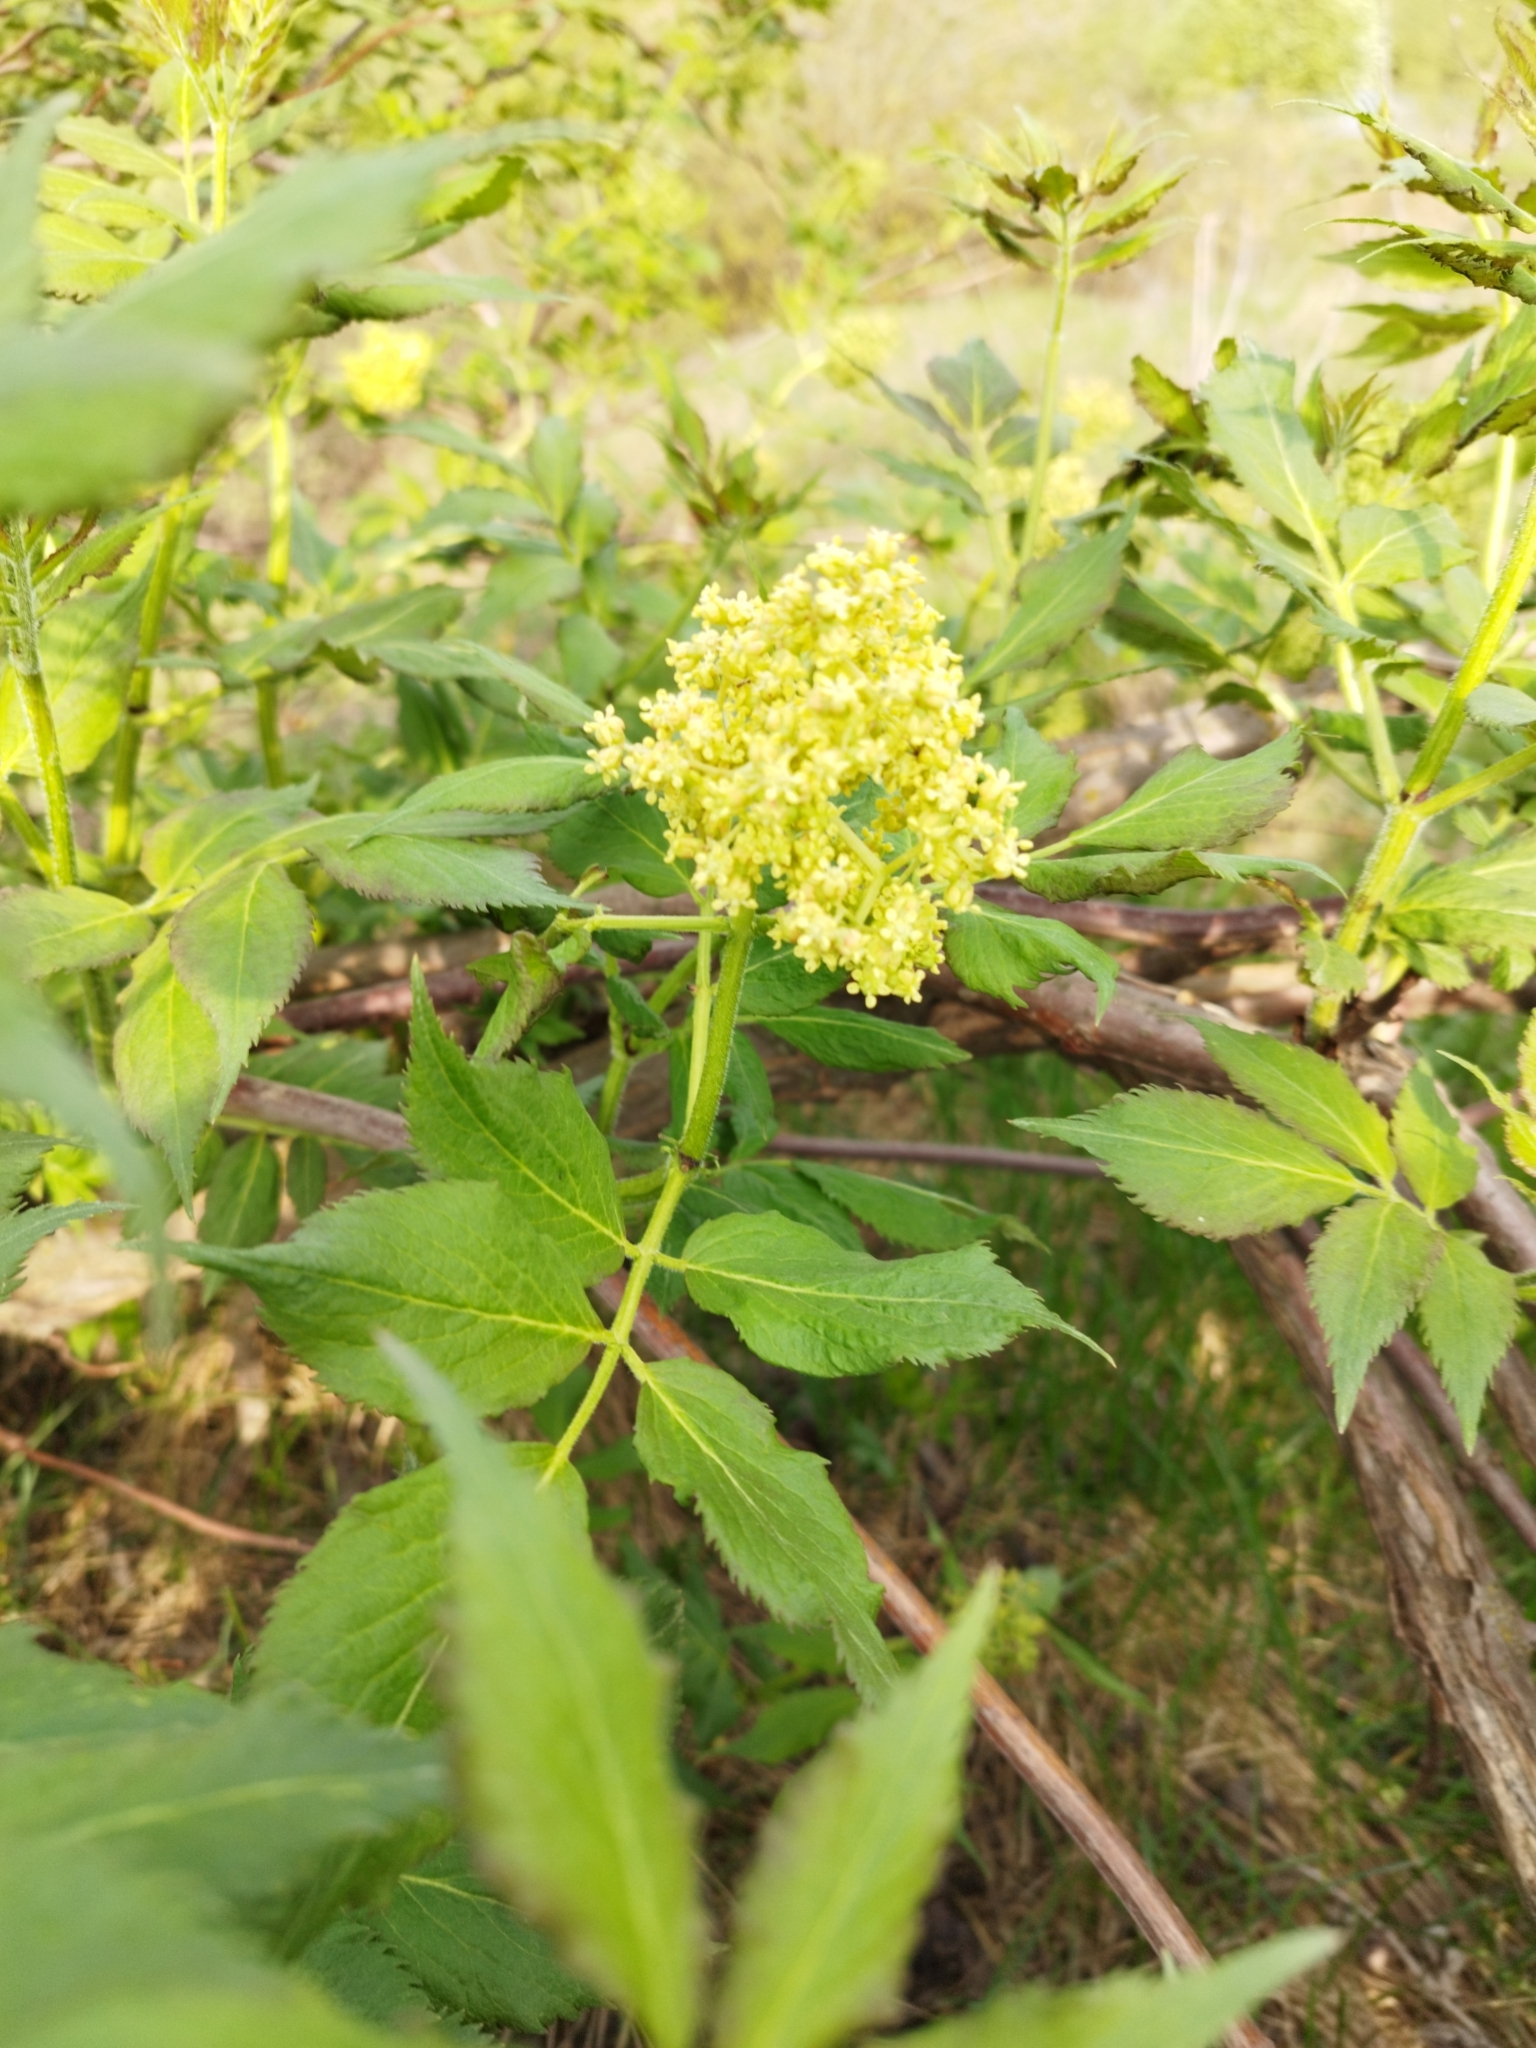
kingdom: Plantae
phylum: Tracheophyta
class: Magnoliopsida
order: Dipsacales
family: Viburnaceae
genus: Sambucus
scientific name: Sambucus racemosa
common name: Red-berried elder
